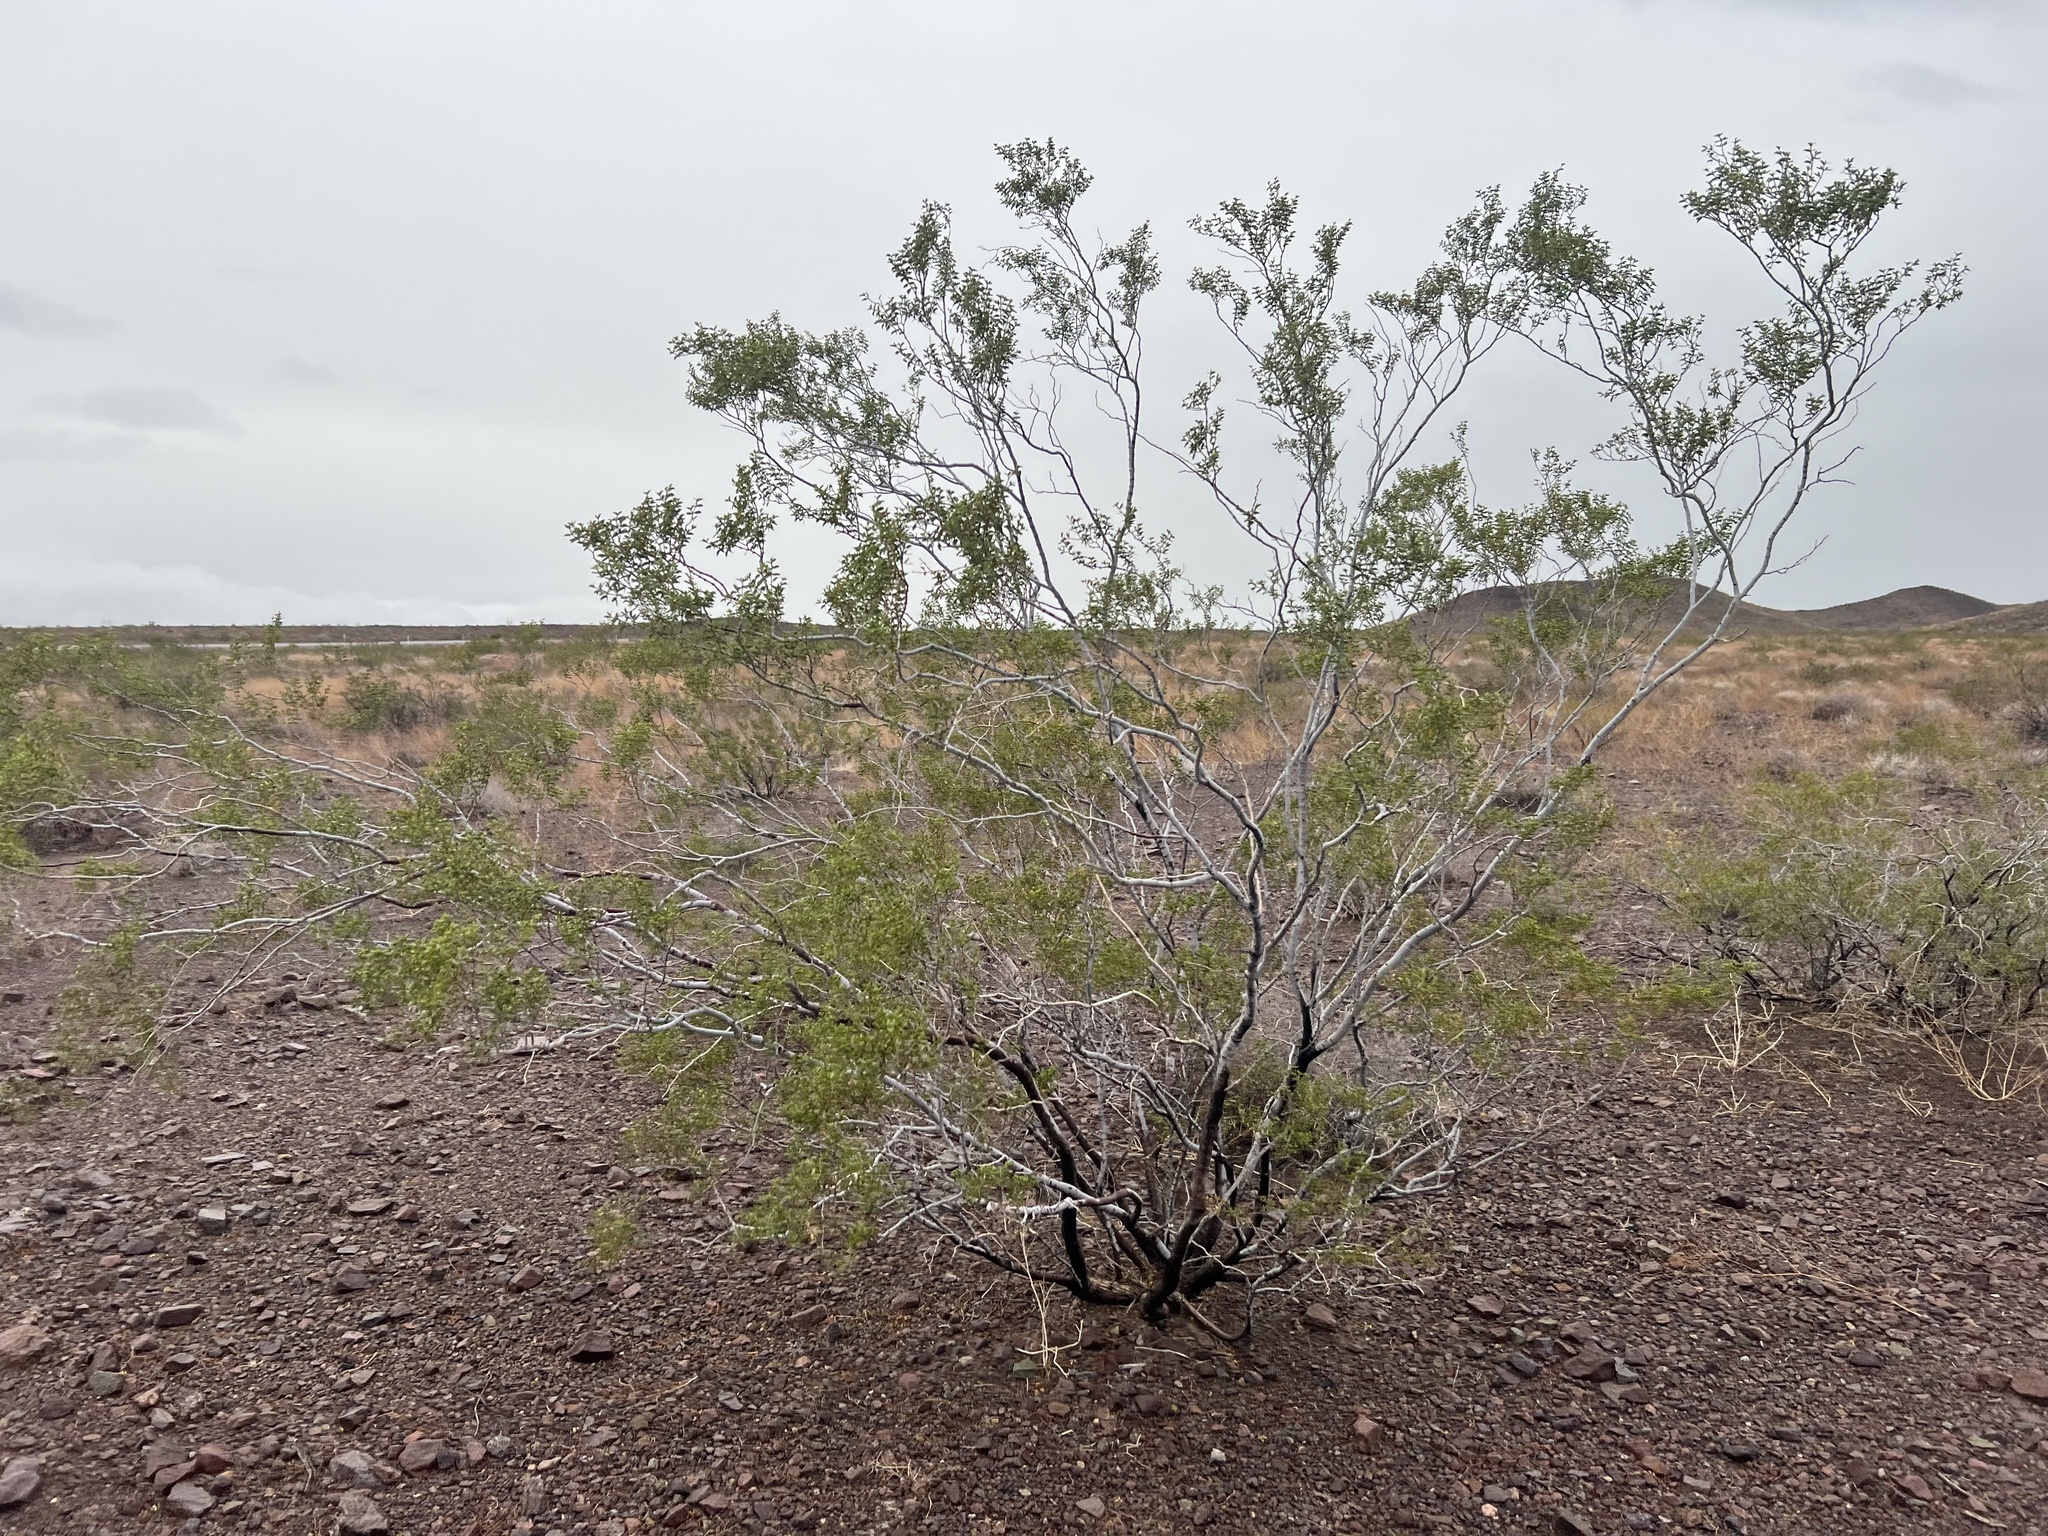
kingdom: Plantae
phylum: Tracheophyta
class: Magnoliopsida
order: Zygophyllales
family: Zygophyllaceae
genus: Larrea
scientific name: Larrea tridentata
